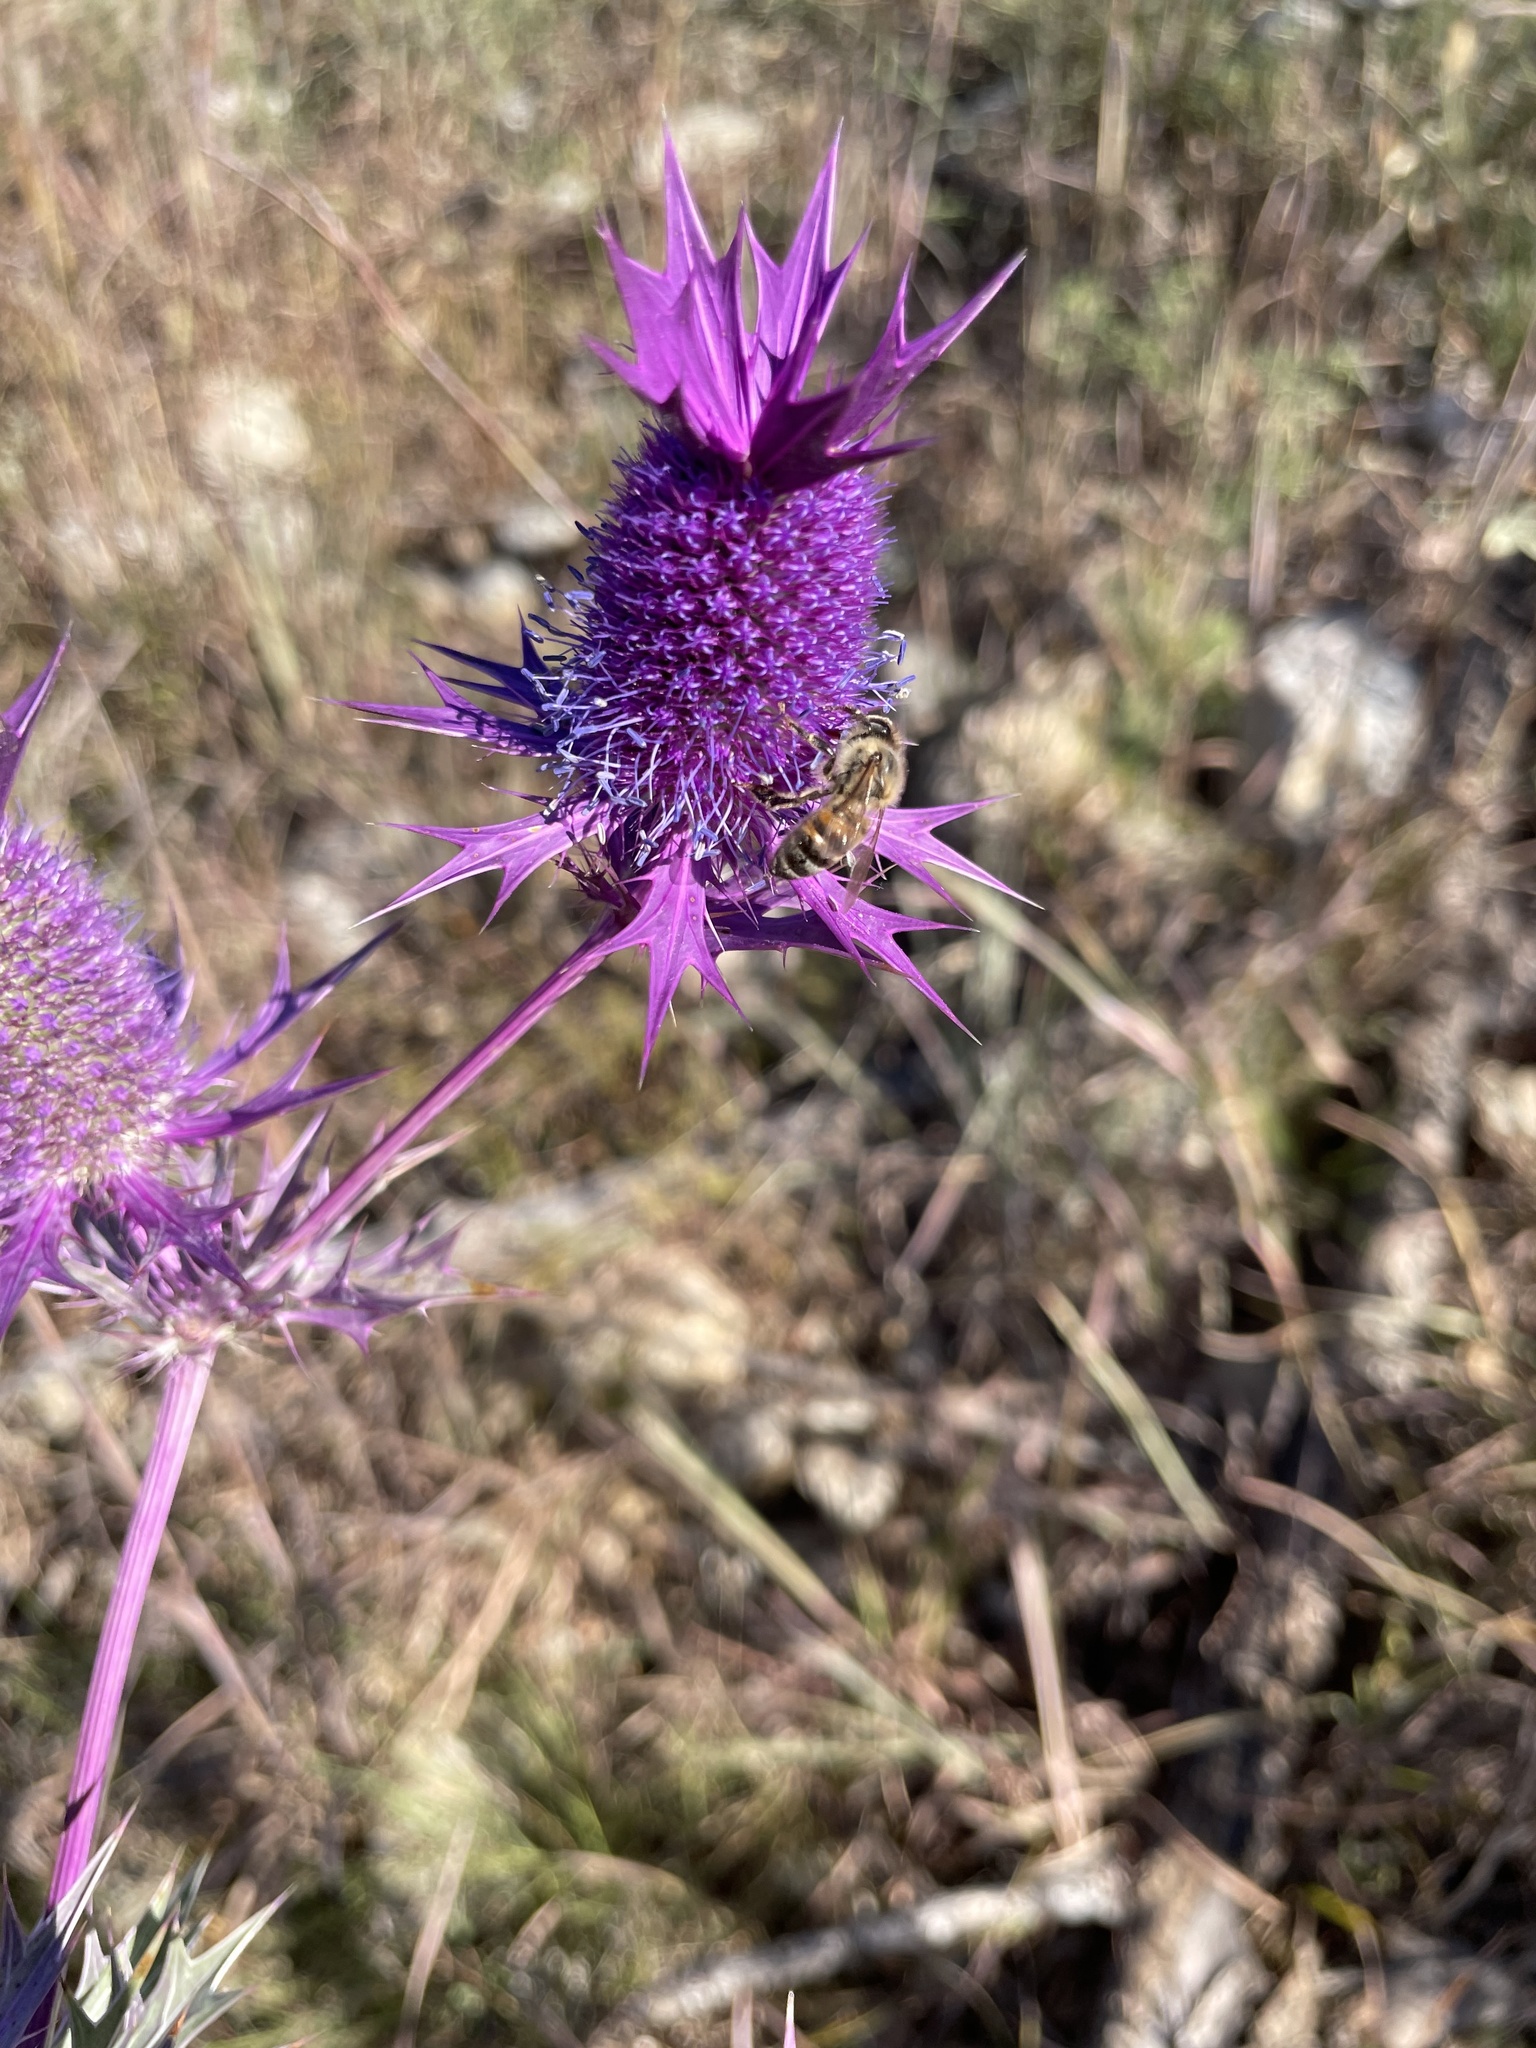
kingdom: Animalia
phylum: Arthropoda
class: Insecta
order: Hymenoptera
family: Apidae
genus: Apis
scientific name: Apis mellifera
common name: Honey bee
